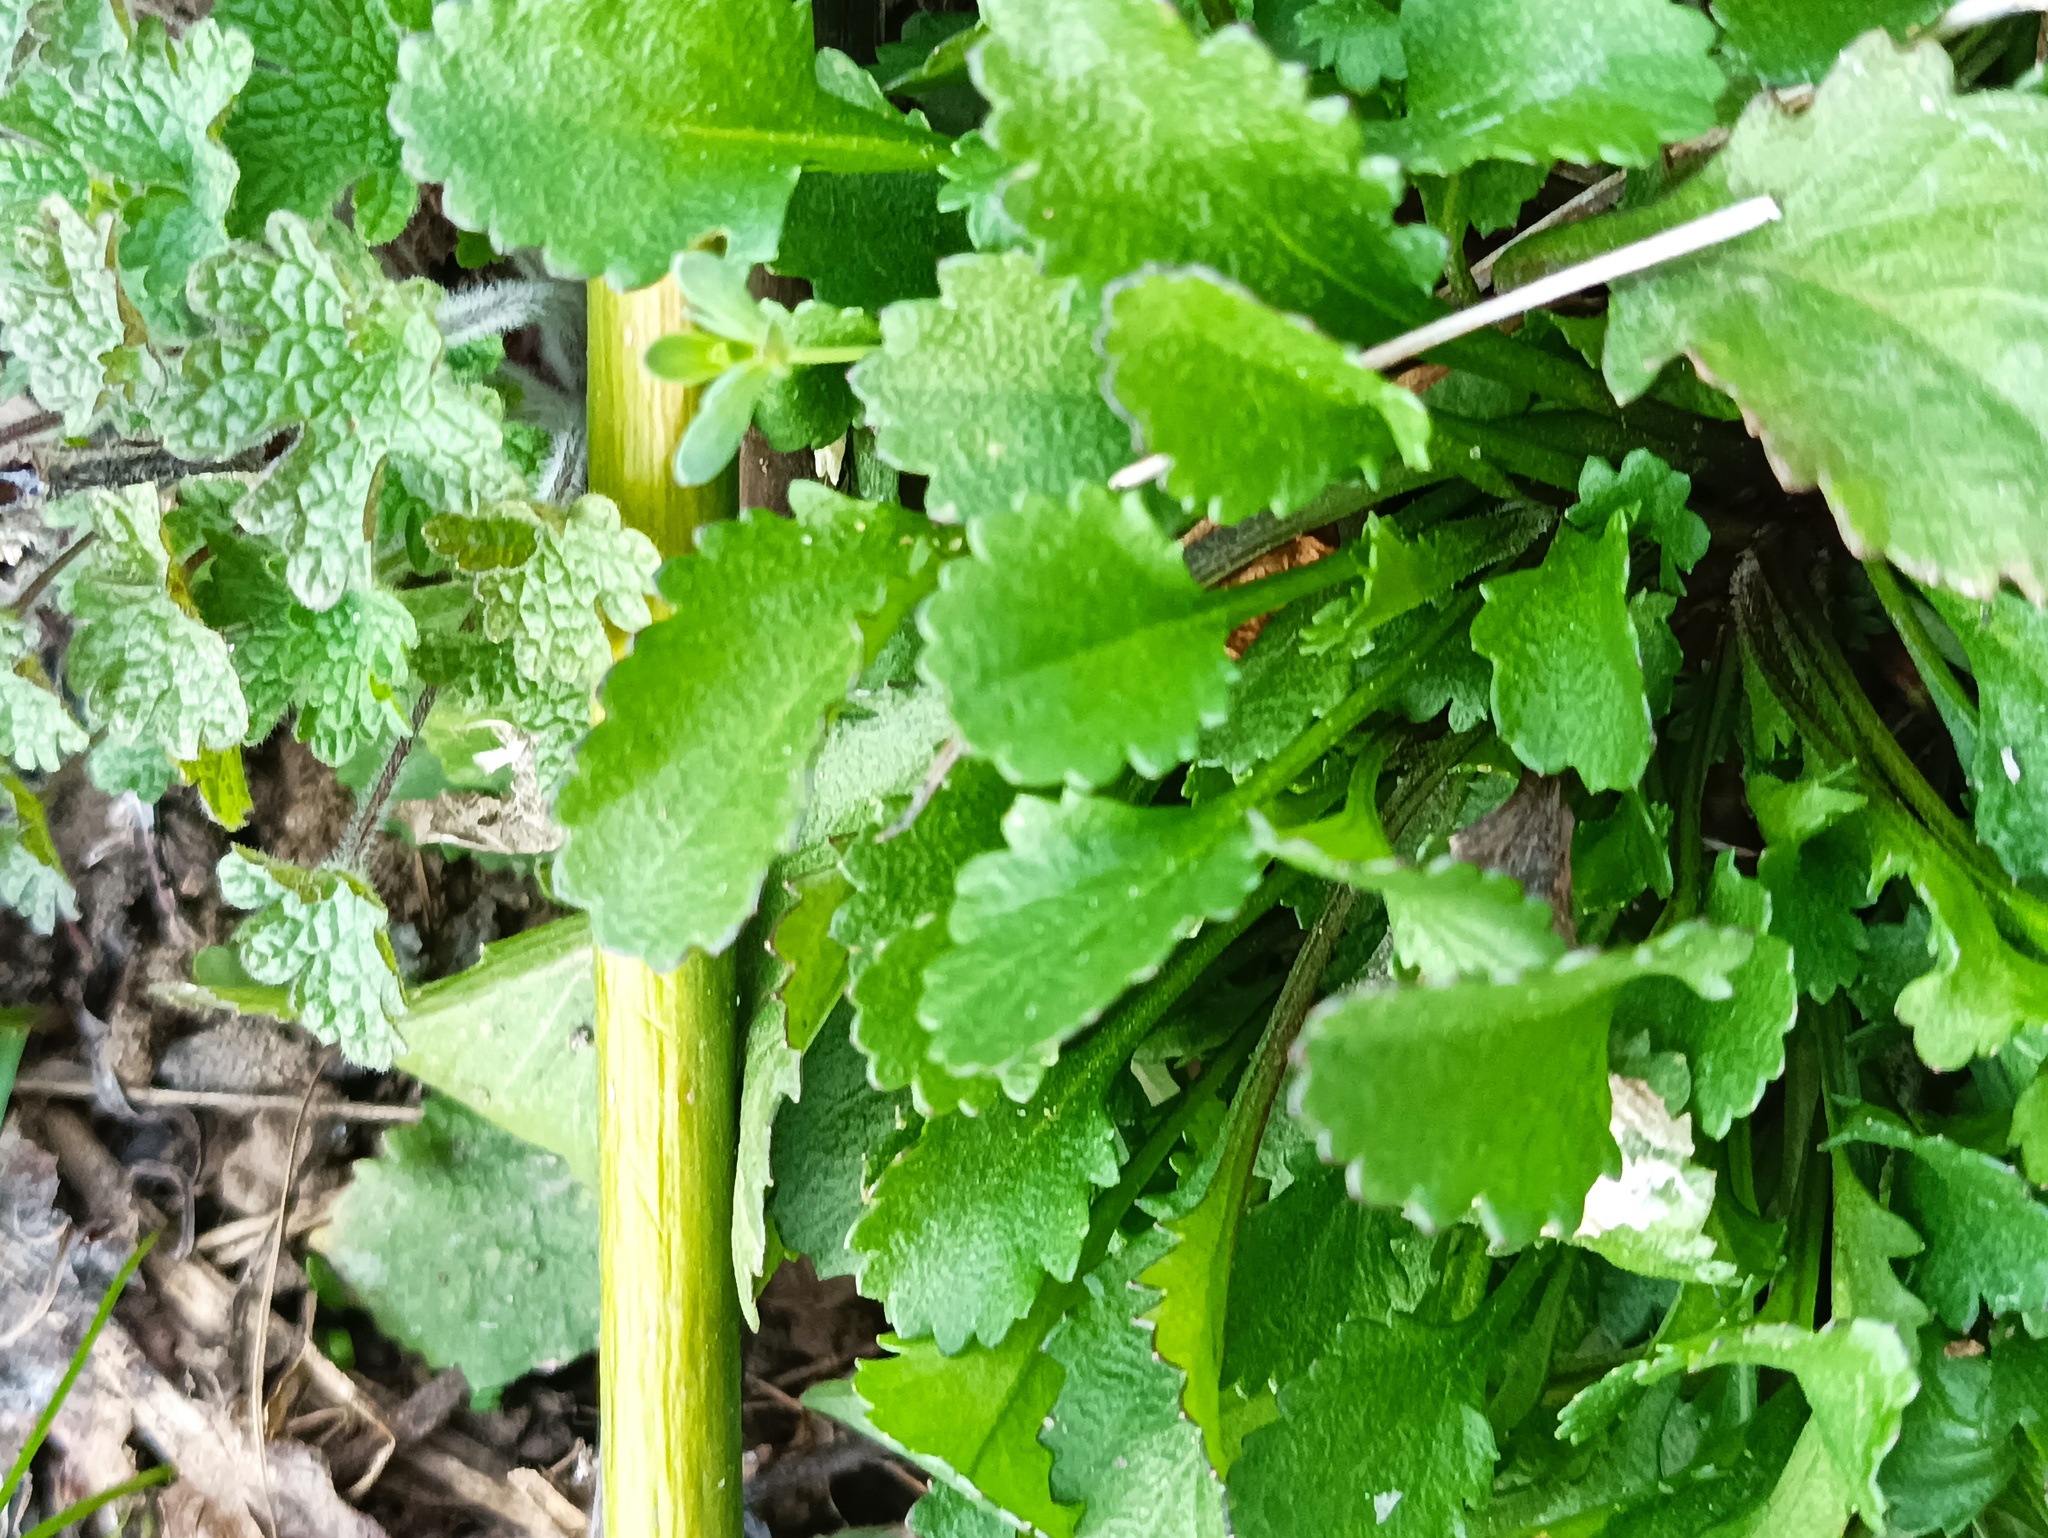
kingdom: Plantae
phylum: Tracheophyta
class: Magnoliopsida
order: Asterales
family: Asteraceae
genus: Leucanthemum
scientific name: Leucanthemum vulgare
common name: Oxeye daisy
